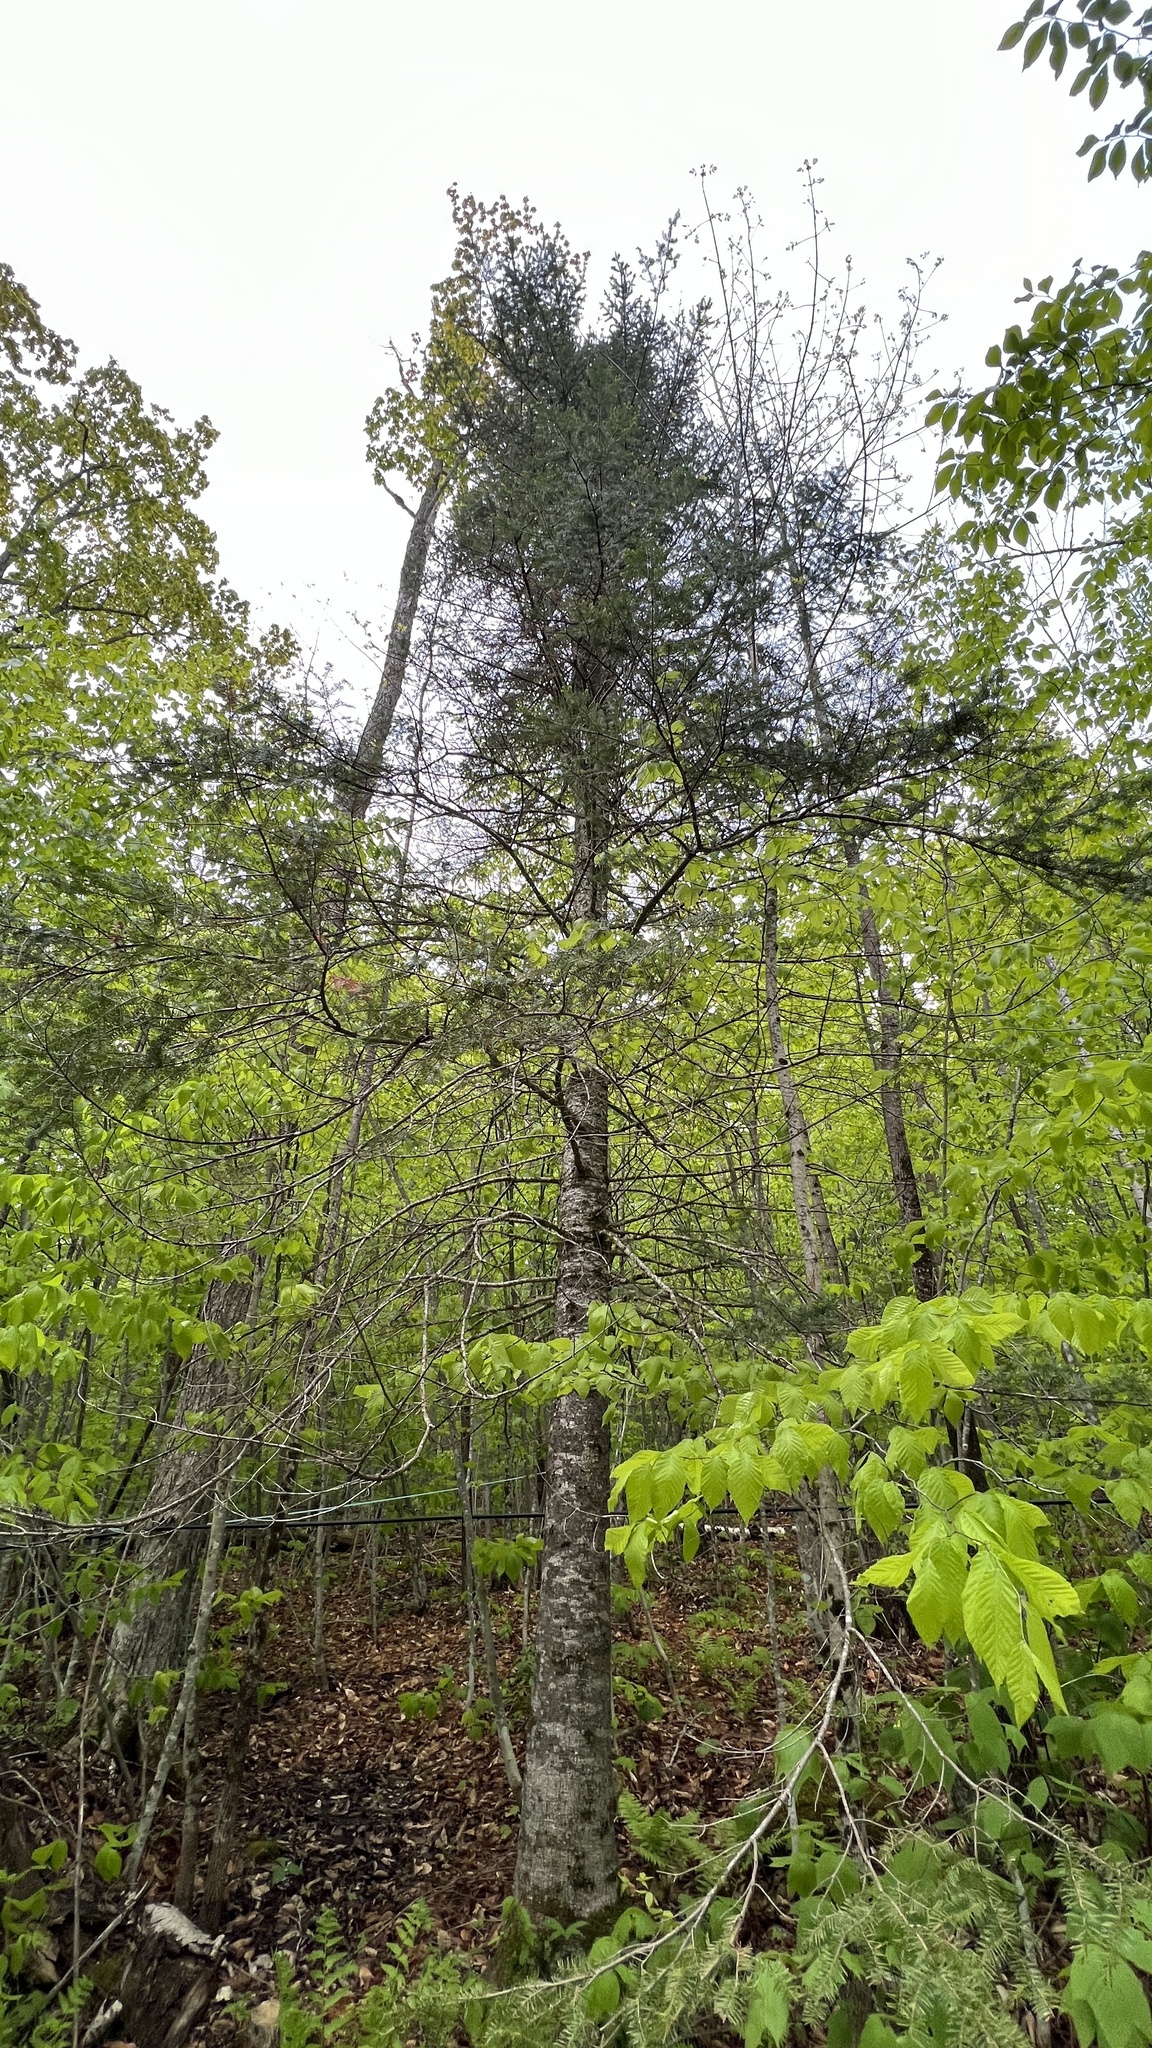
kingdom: Plantae
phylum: Tracheophyta
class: Pinopsida
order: Pinales
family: Pinaceae
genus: Abies
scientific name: Abies balsamea
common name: Balsam fir
